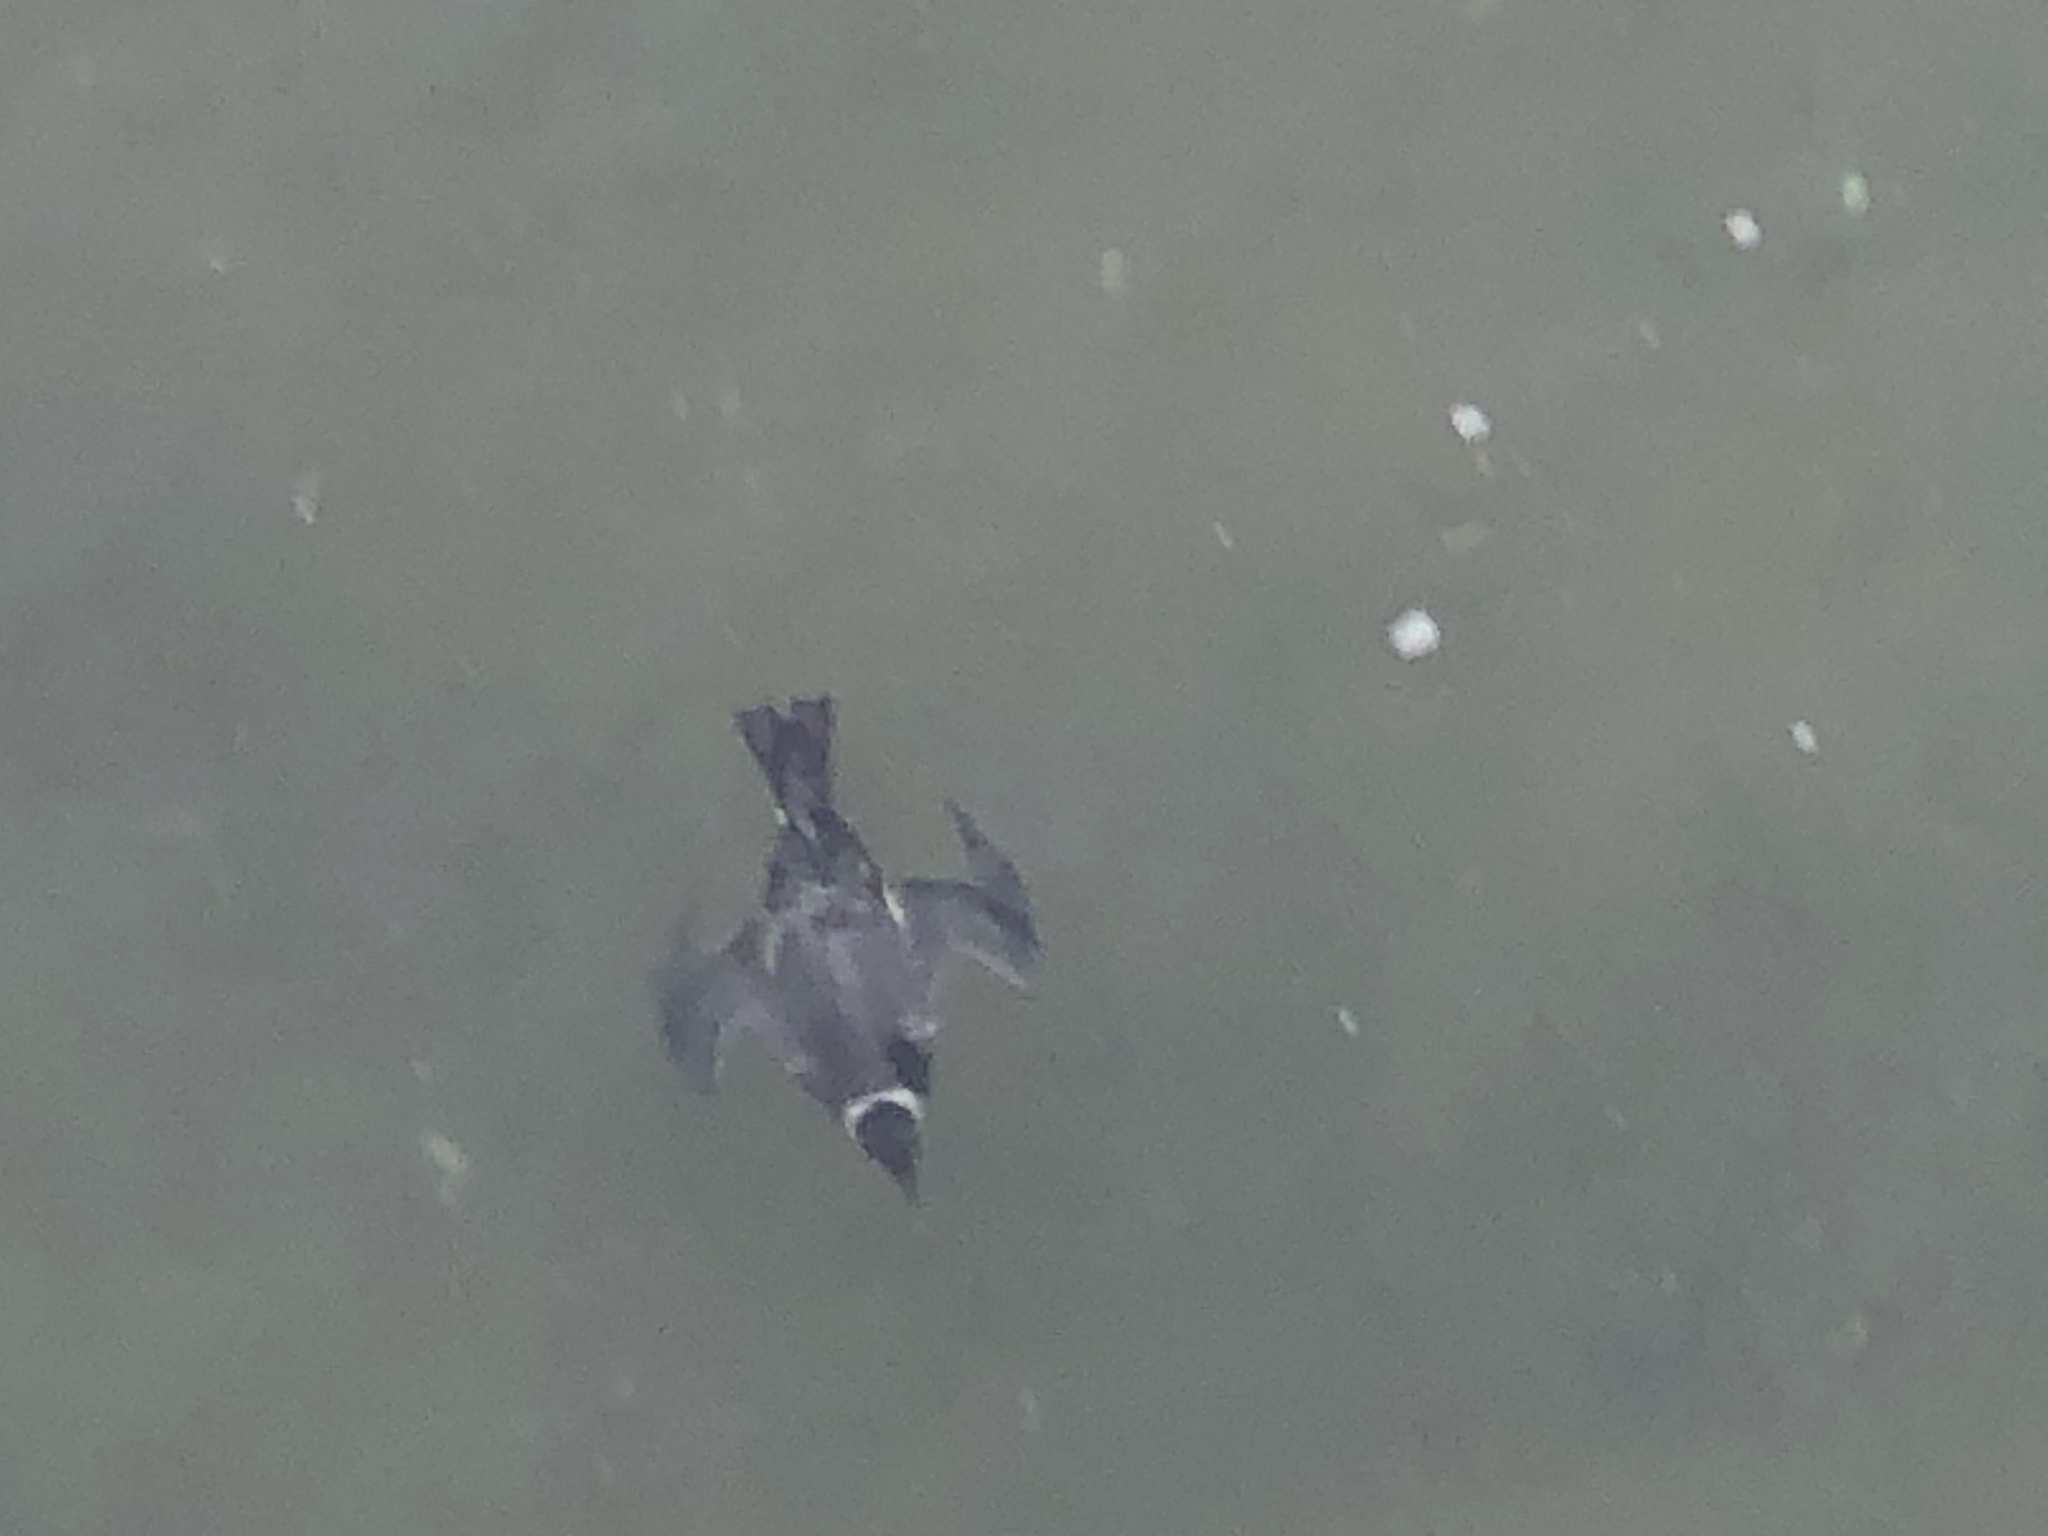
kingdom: Animalia
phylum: Chordata
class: Aves
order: Charadriiformes
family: Alcidae
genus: Uria
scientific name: Uria aalge
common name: Common murre
